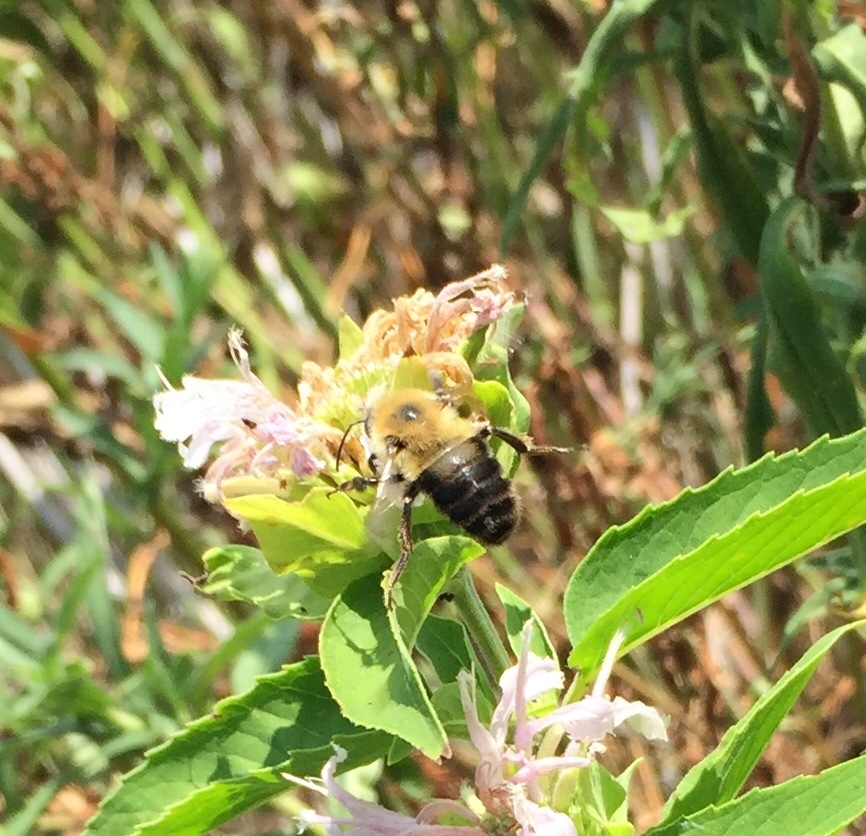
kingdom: Animalia
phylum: Arthropoda
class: Insecta
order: Hymenoptera
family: Apidae
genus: Bombus
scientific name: Bombus bimaculatus
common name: Two-spotted bumble bee
